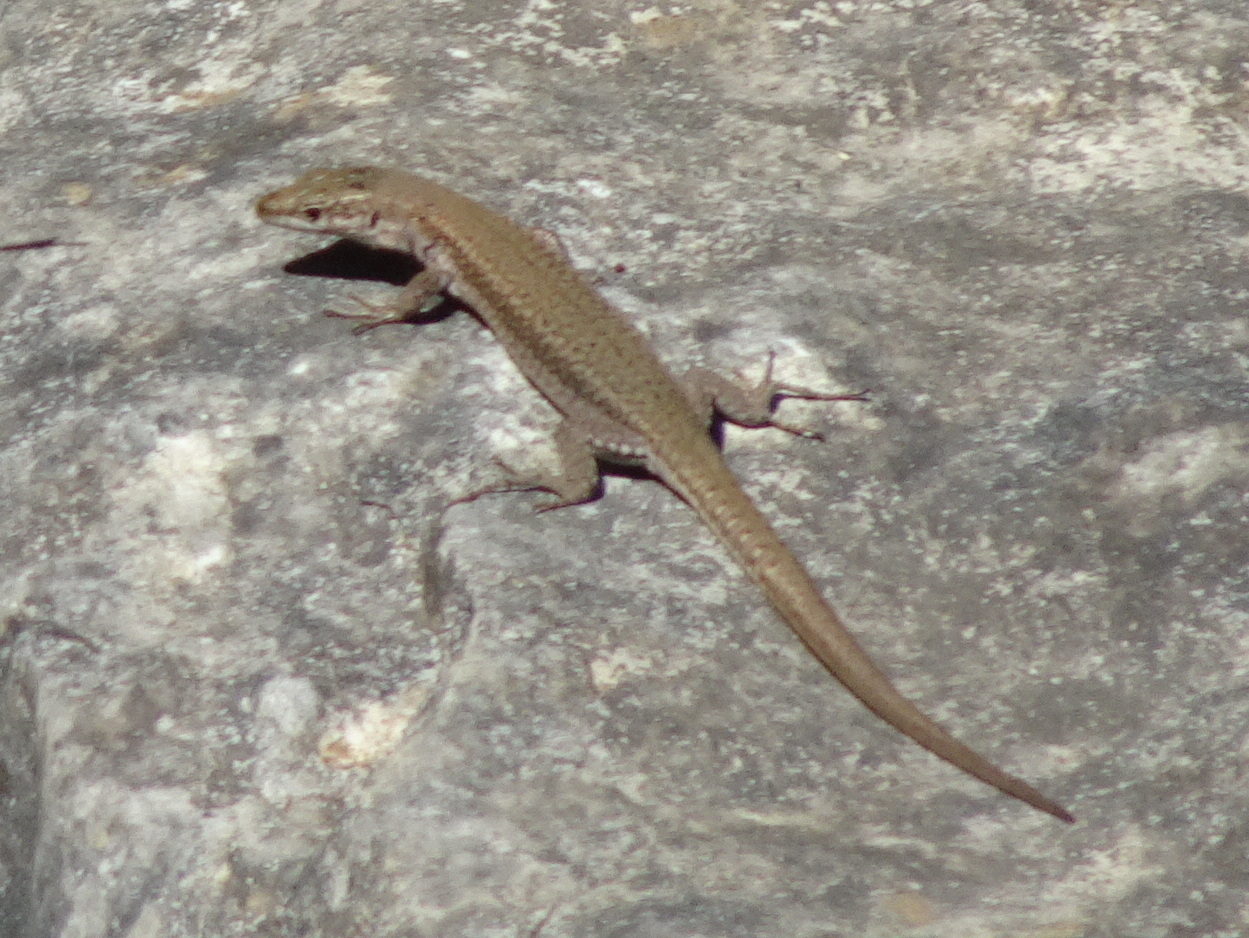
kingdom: Animalia
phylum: Chordata
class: Squamata
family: Lacertidae
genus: Podarcis
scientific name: Podarcis liolepis
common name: Catalonian wall lizard
